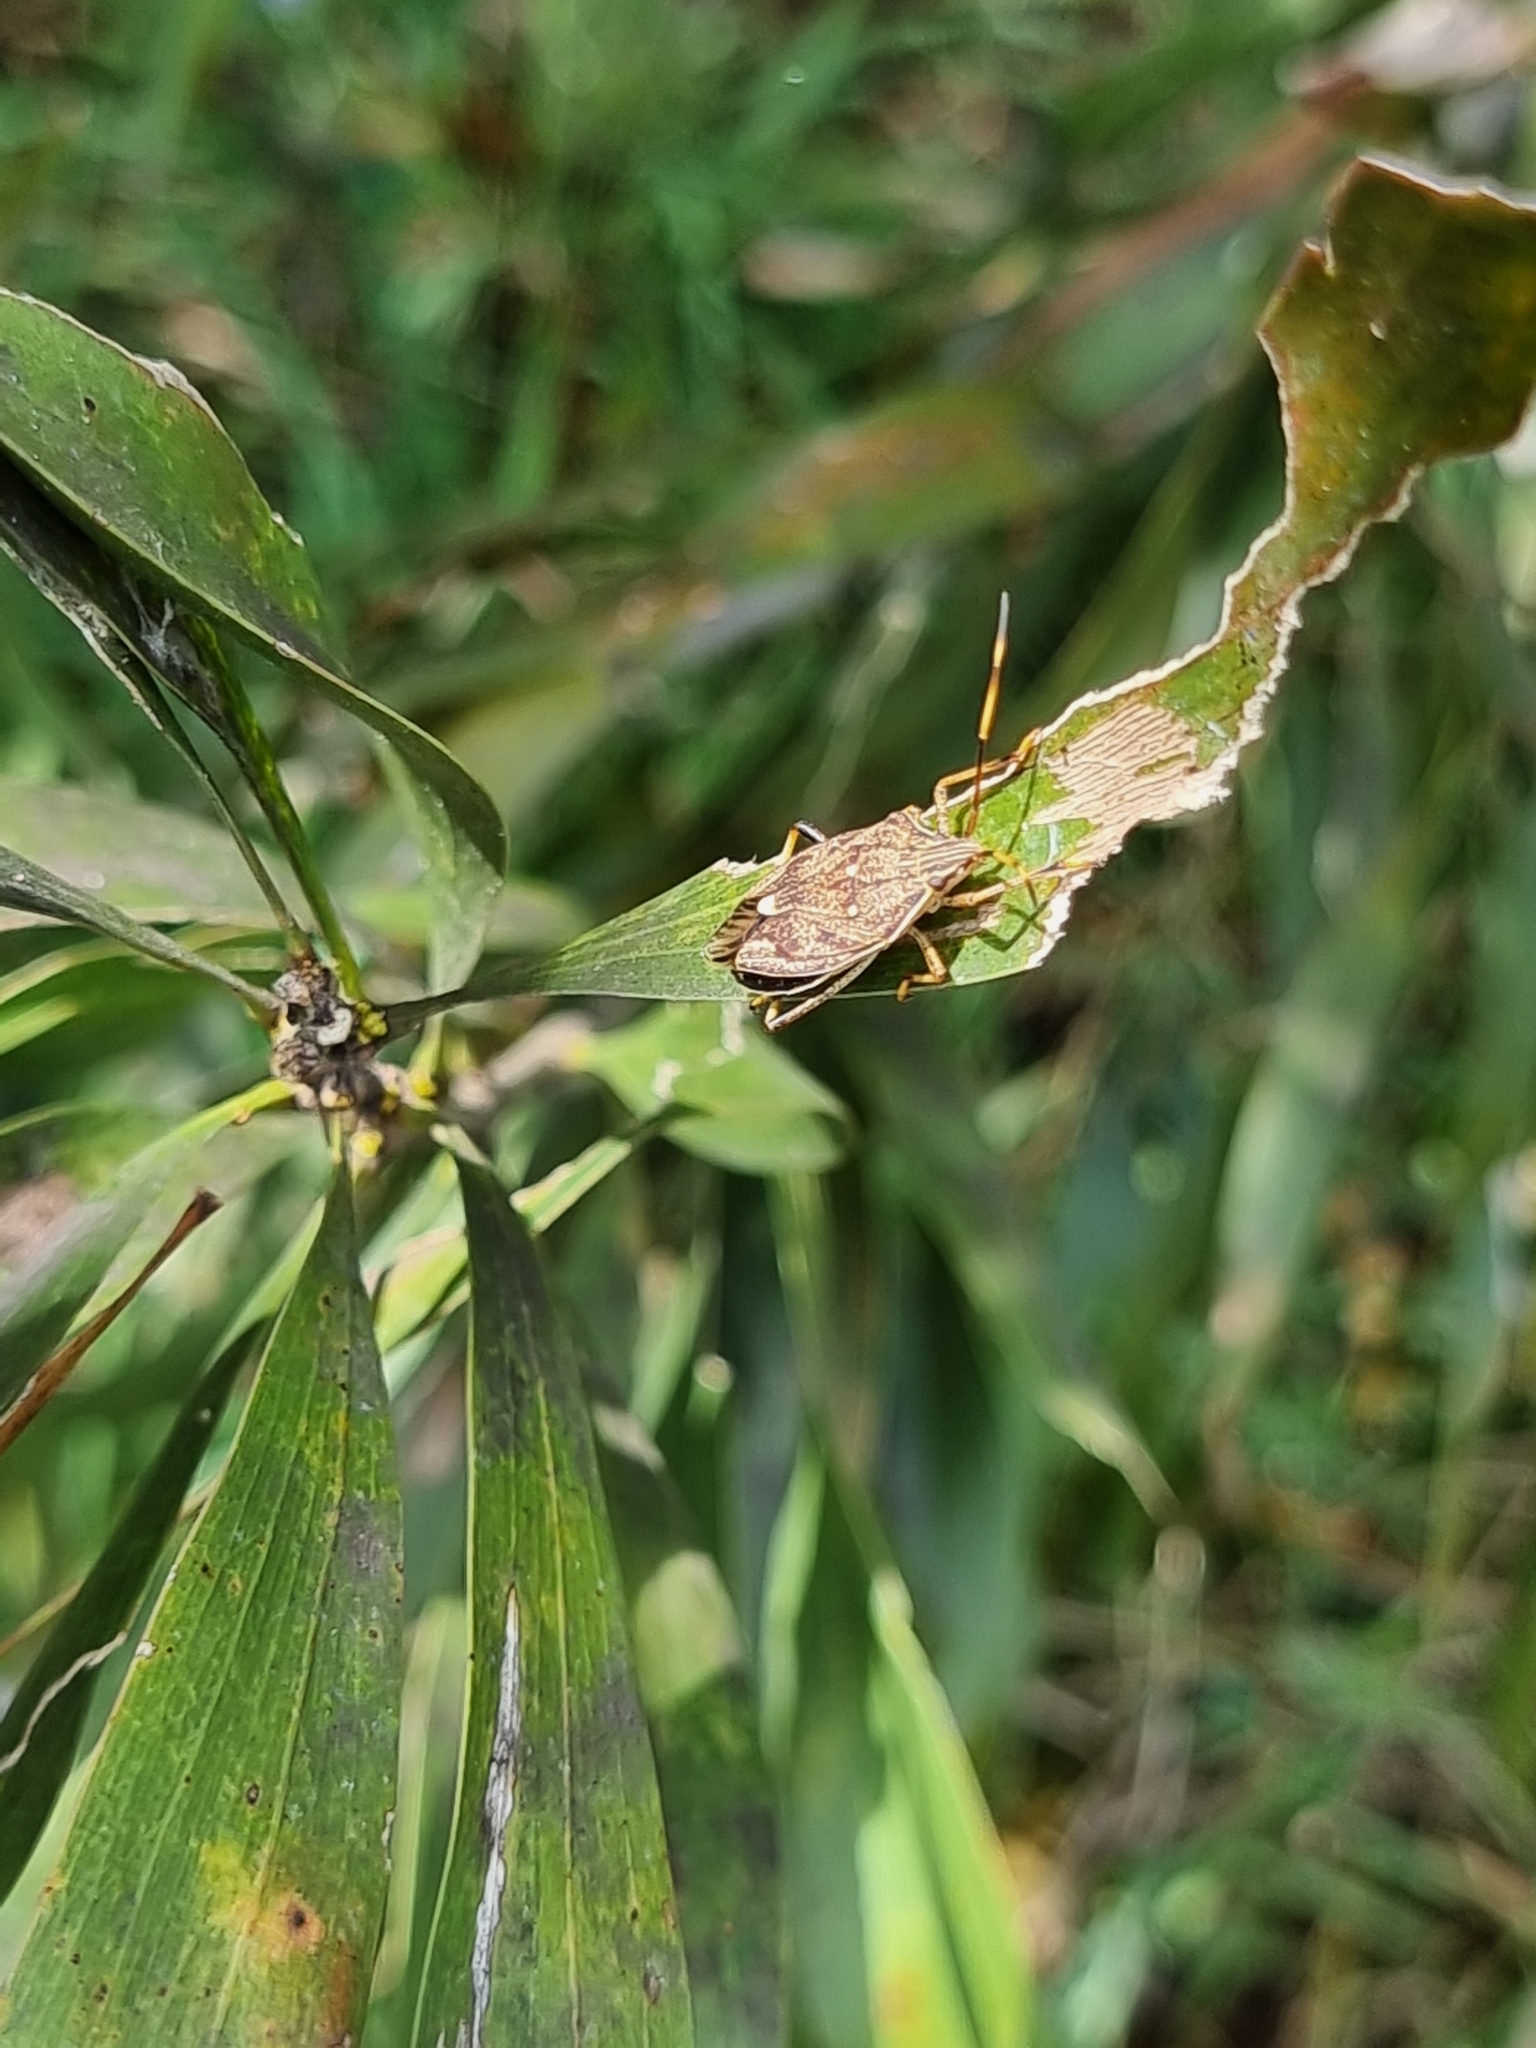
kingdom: Animalia
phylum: Arthropoda
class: Insecta
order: Hemiptera
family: Pentatomidae
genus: Poecilometis
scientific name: Poecilometis
